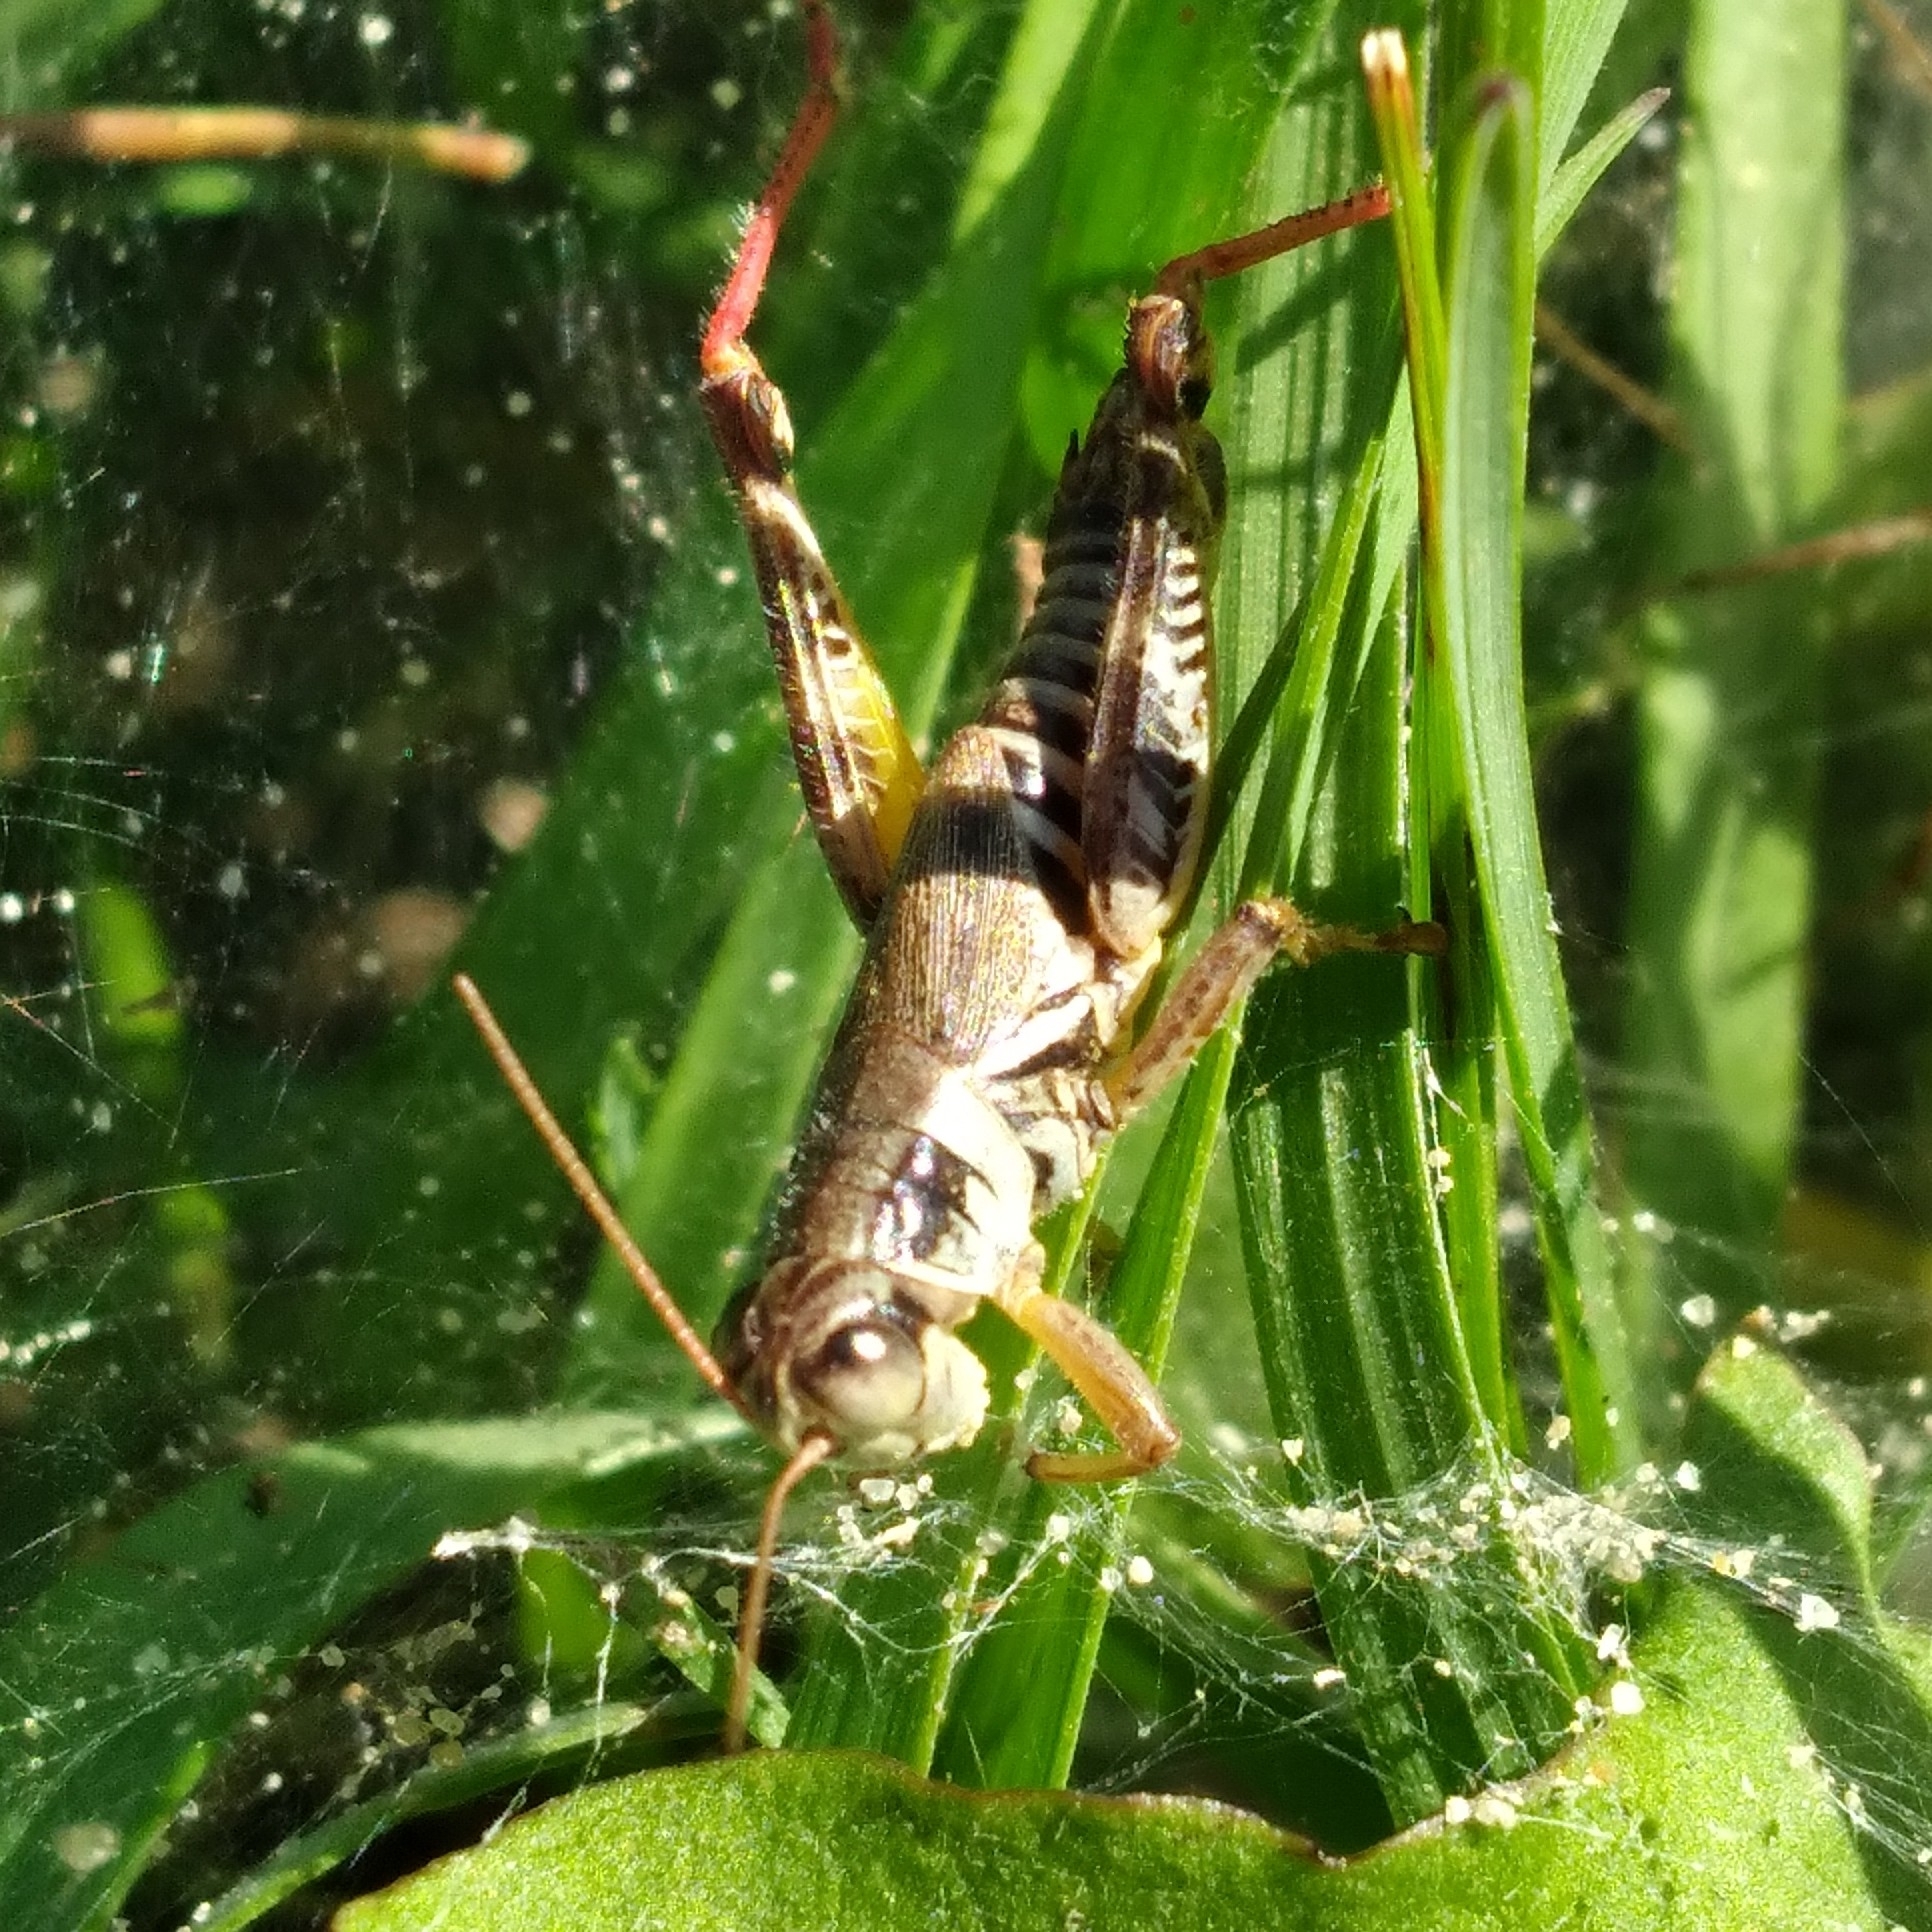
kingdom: Animalia
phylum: Arthropoda
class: Insecta
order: Orthoptera
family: Acrididae
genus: Melanoplus
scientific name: Melanoplus dawsoni
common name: Dawson grasshopper
